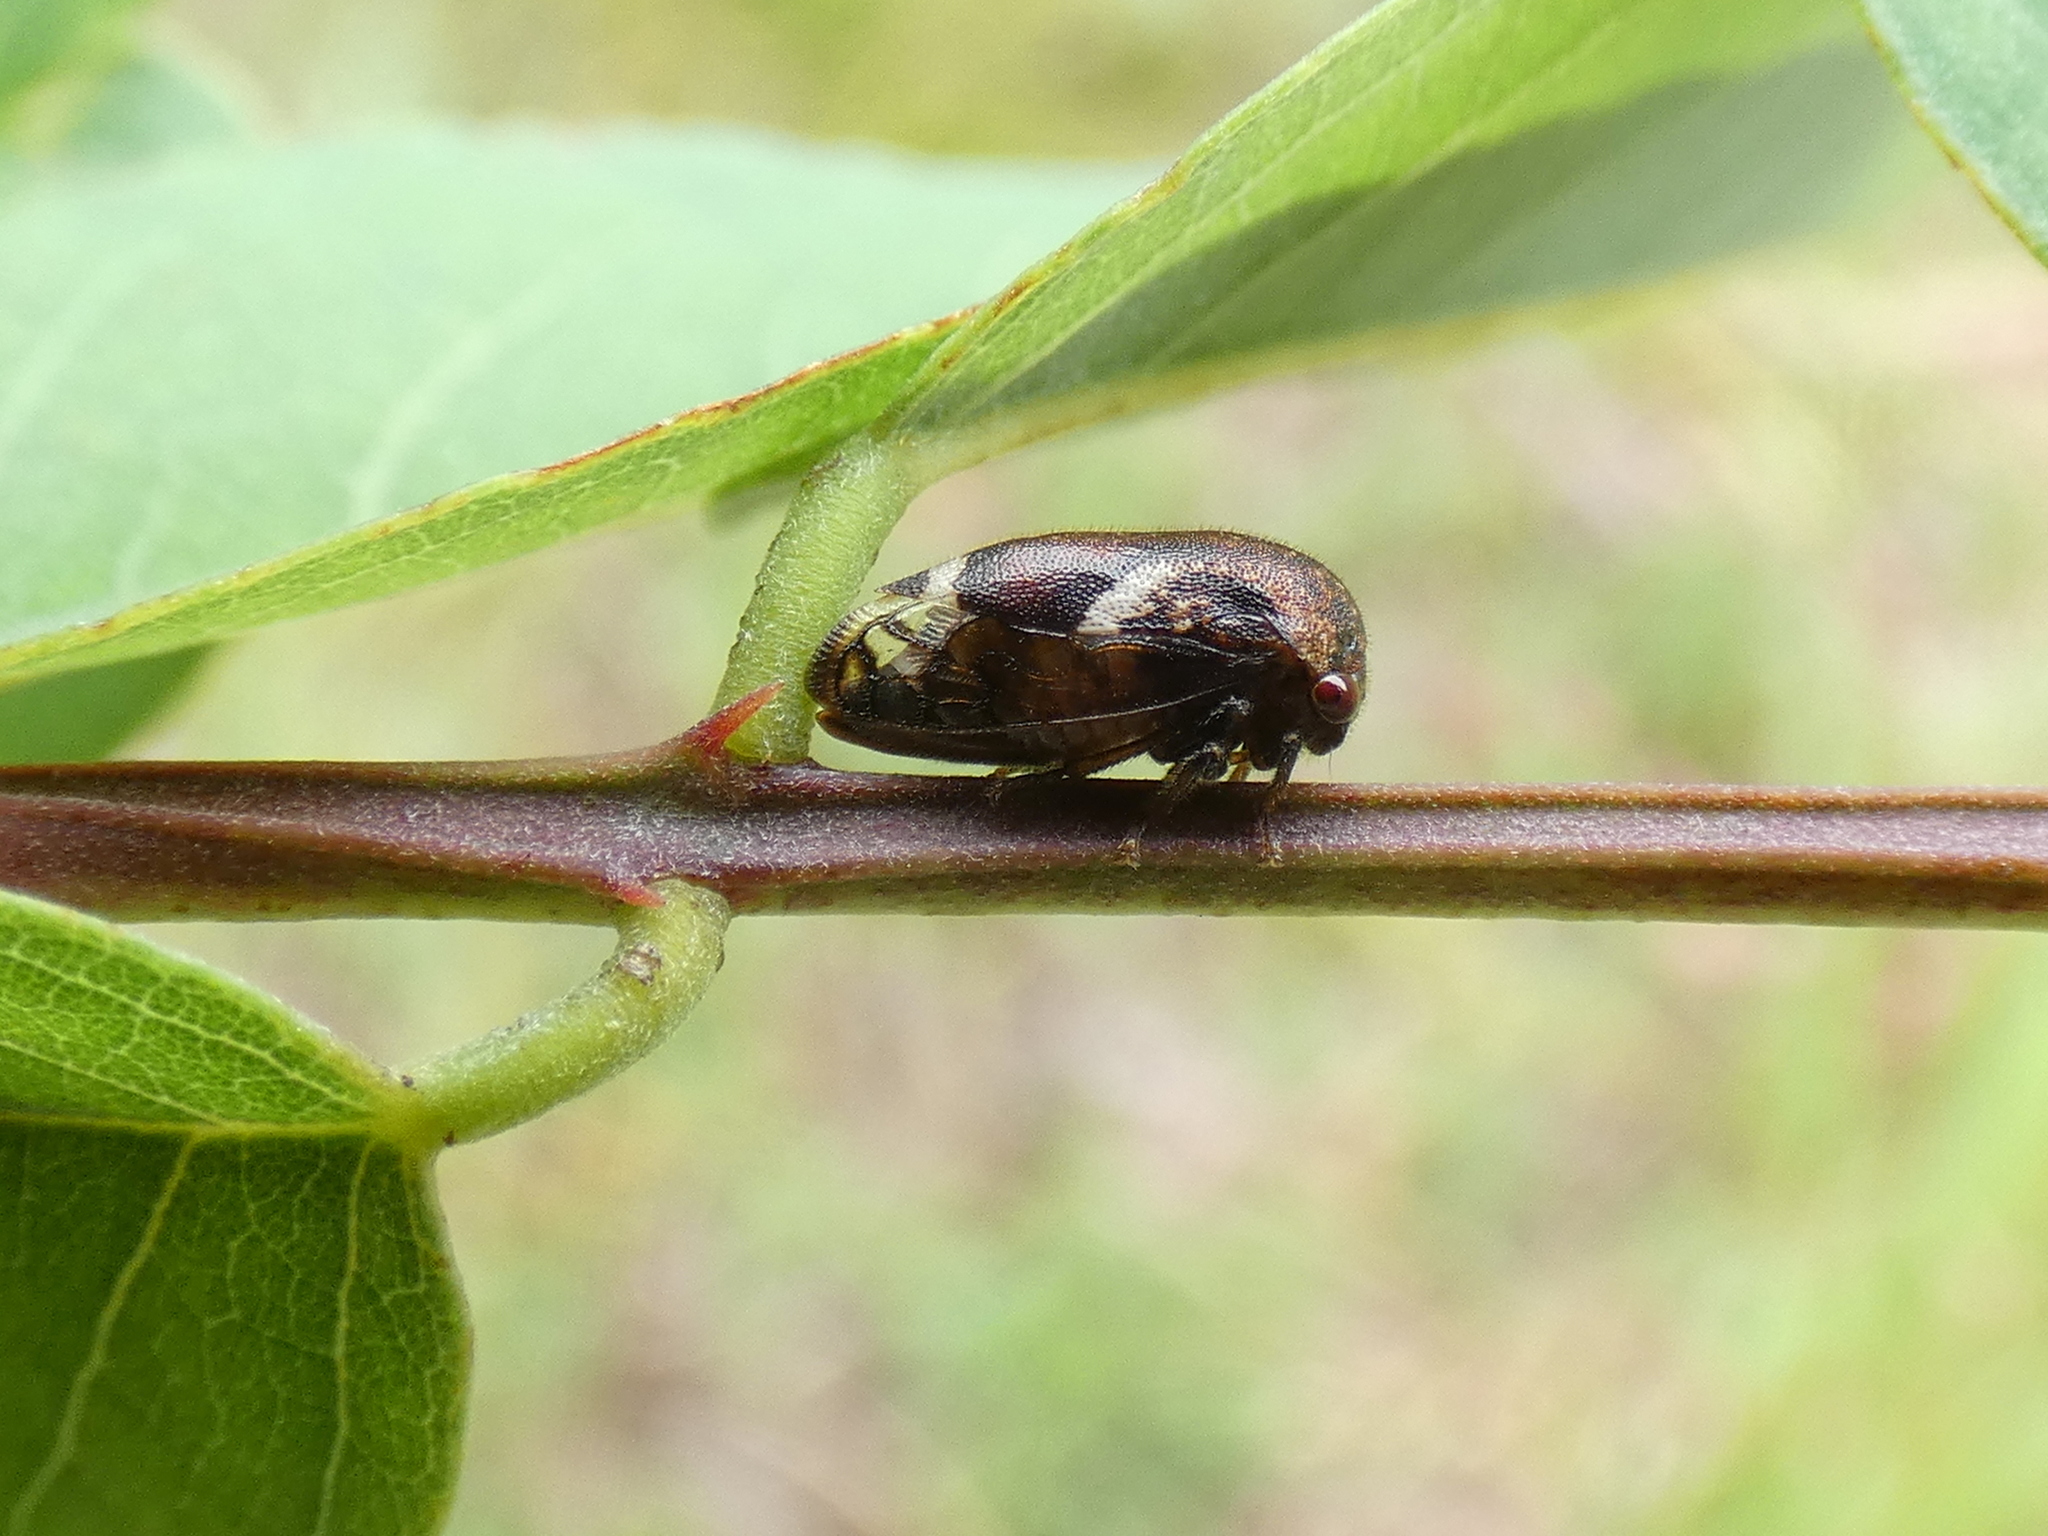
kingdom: Animalia
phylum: Arthropoda
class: Insecta
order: Hemiptera
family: Membracidae
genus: Vanduzea
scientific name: Vanduzea arquata
